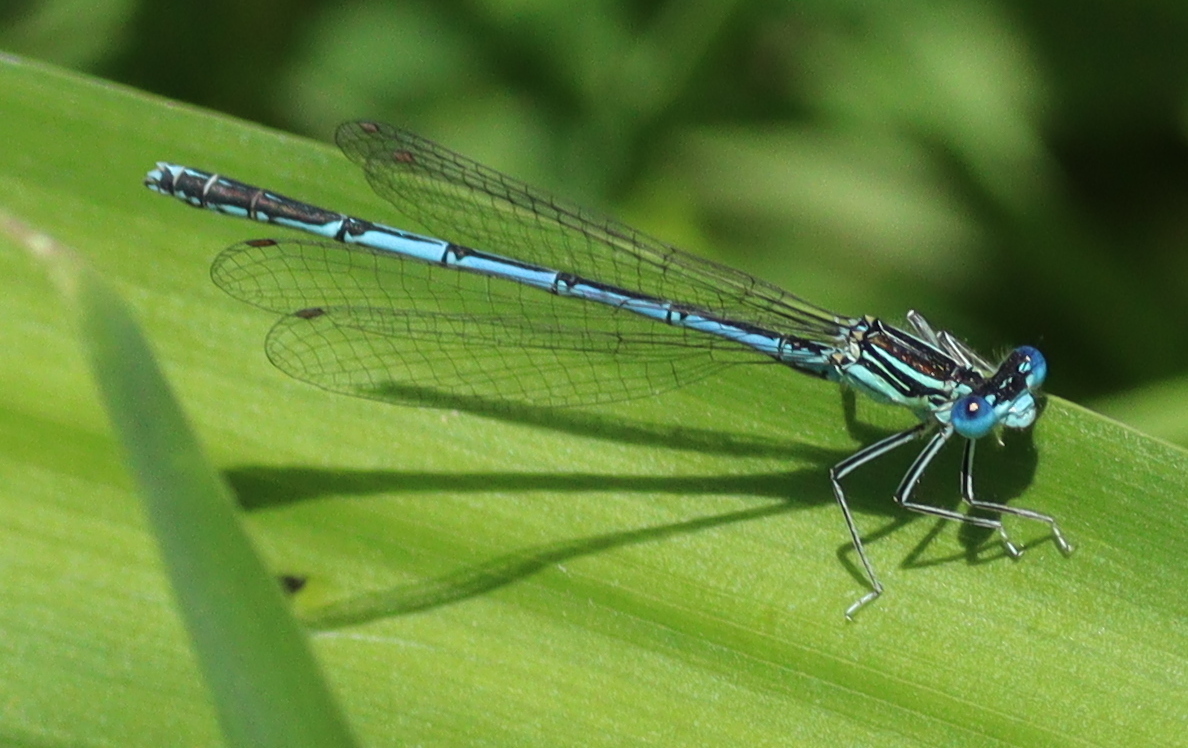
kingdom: Animalia
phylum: Arthropoda
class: Insecta
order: Odonata
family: Platycnemididae
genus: Platycnemis
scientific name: Platycnemis pennipes
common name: White-legged damselfly
